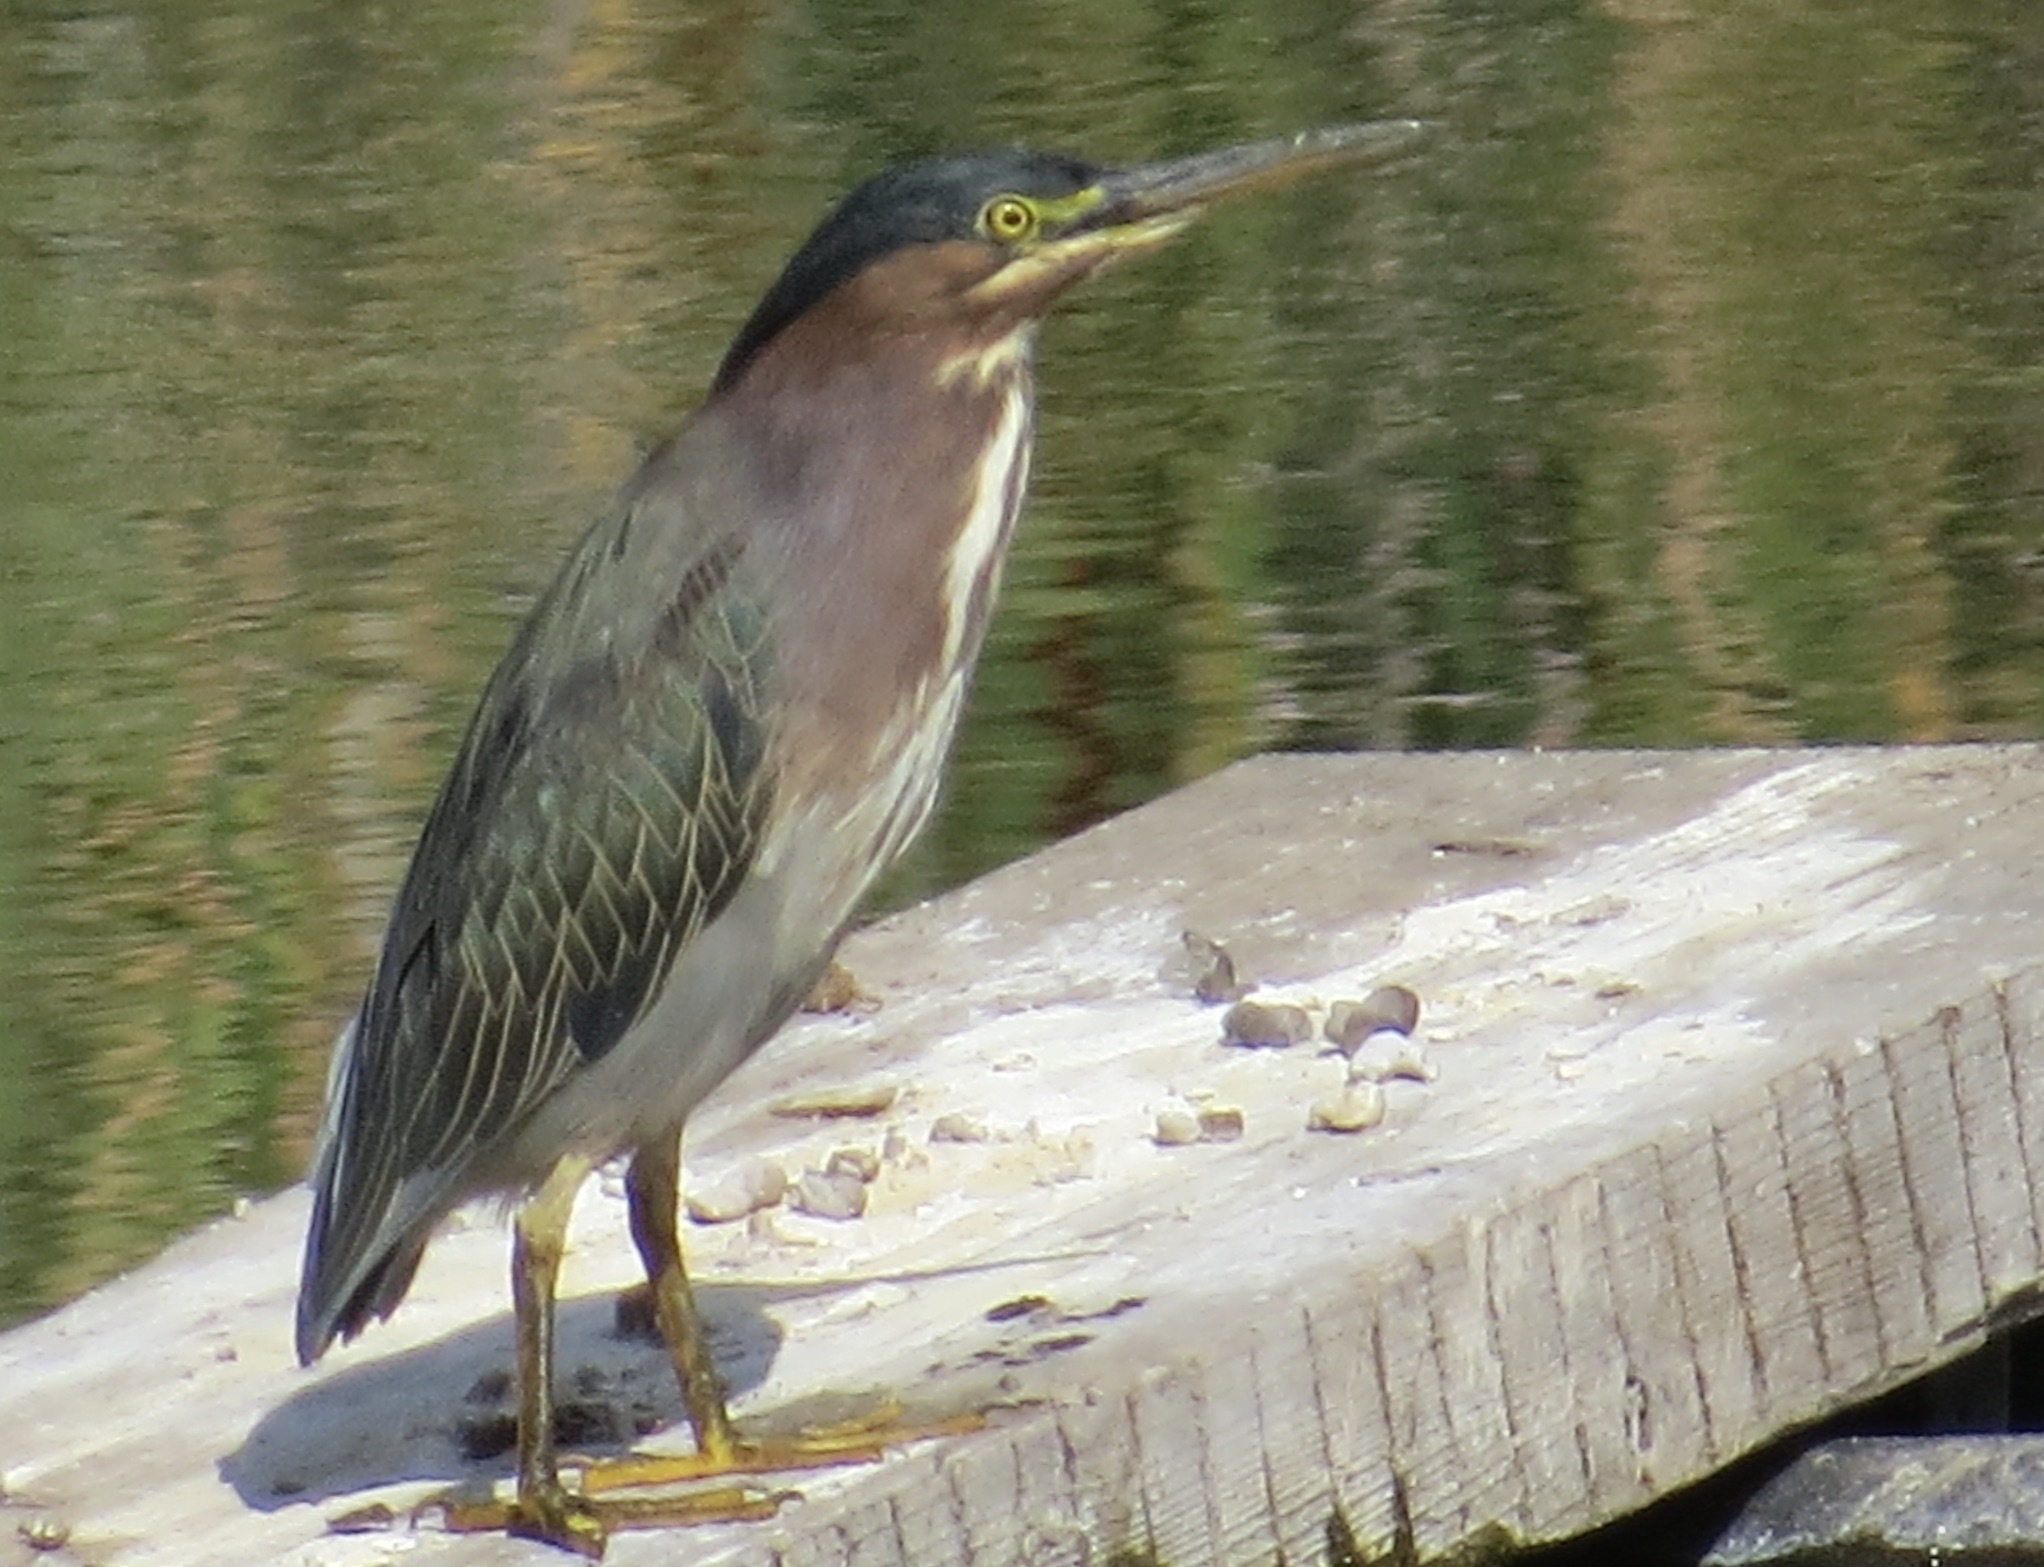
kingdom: Animalia
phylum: Chordata
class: Aves
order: Pelecaniformes
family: Ardeidae
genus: Butorides
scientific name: Butorides virescens
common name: Green heron
